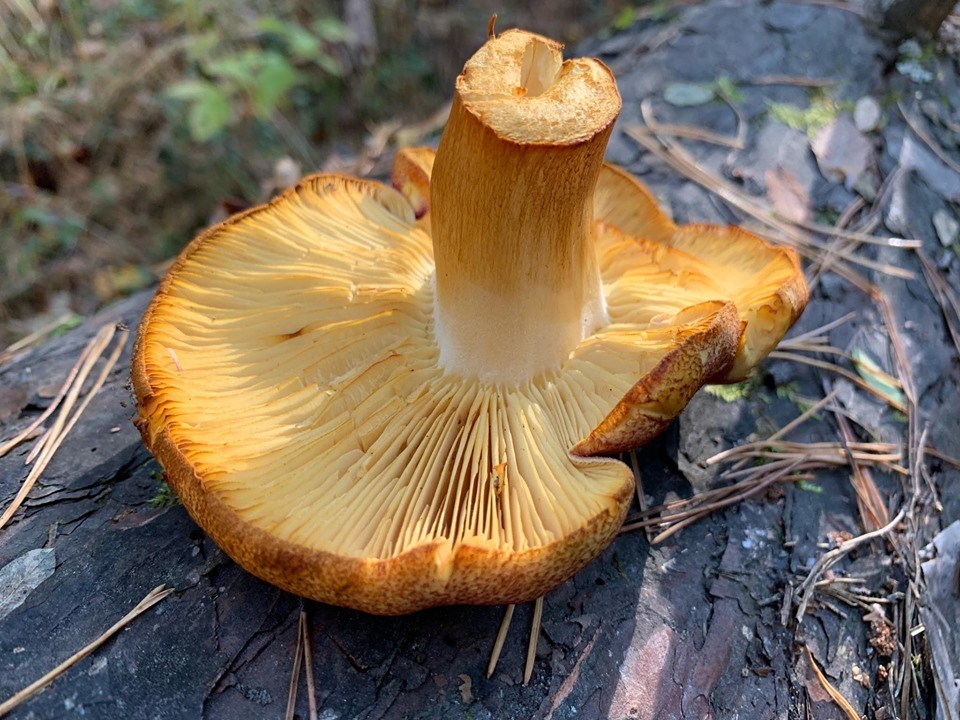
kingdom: Fungi
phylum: Basidiomycota
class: Agaricomycetes
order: Agaricales
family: Tricholomataceae
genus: Tricholomopsis
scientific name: Tricholomopsis rutilans
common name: Plums and custard
